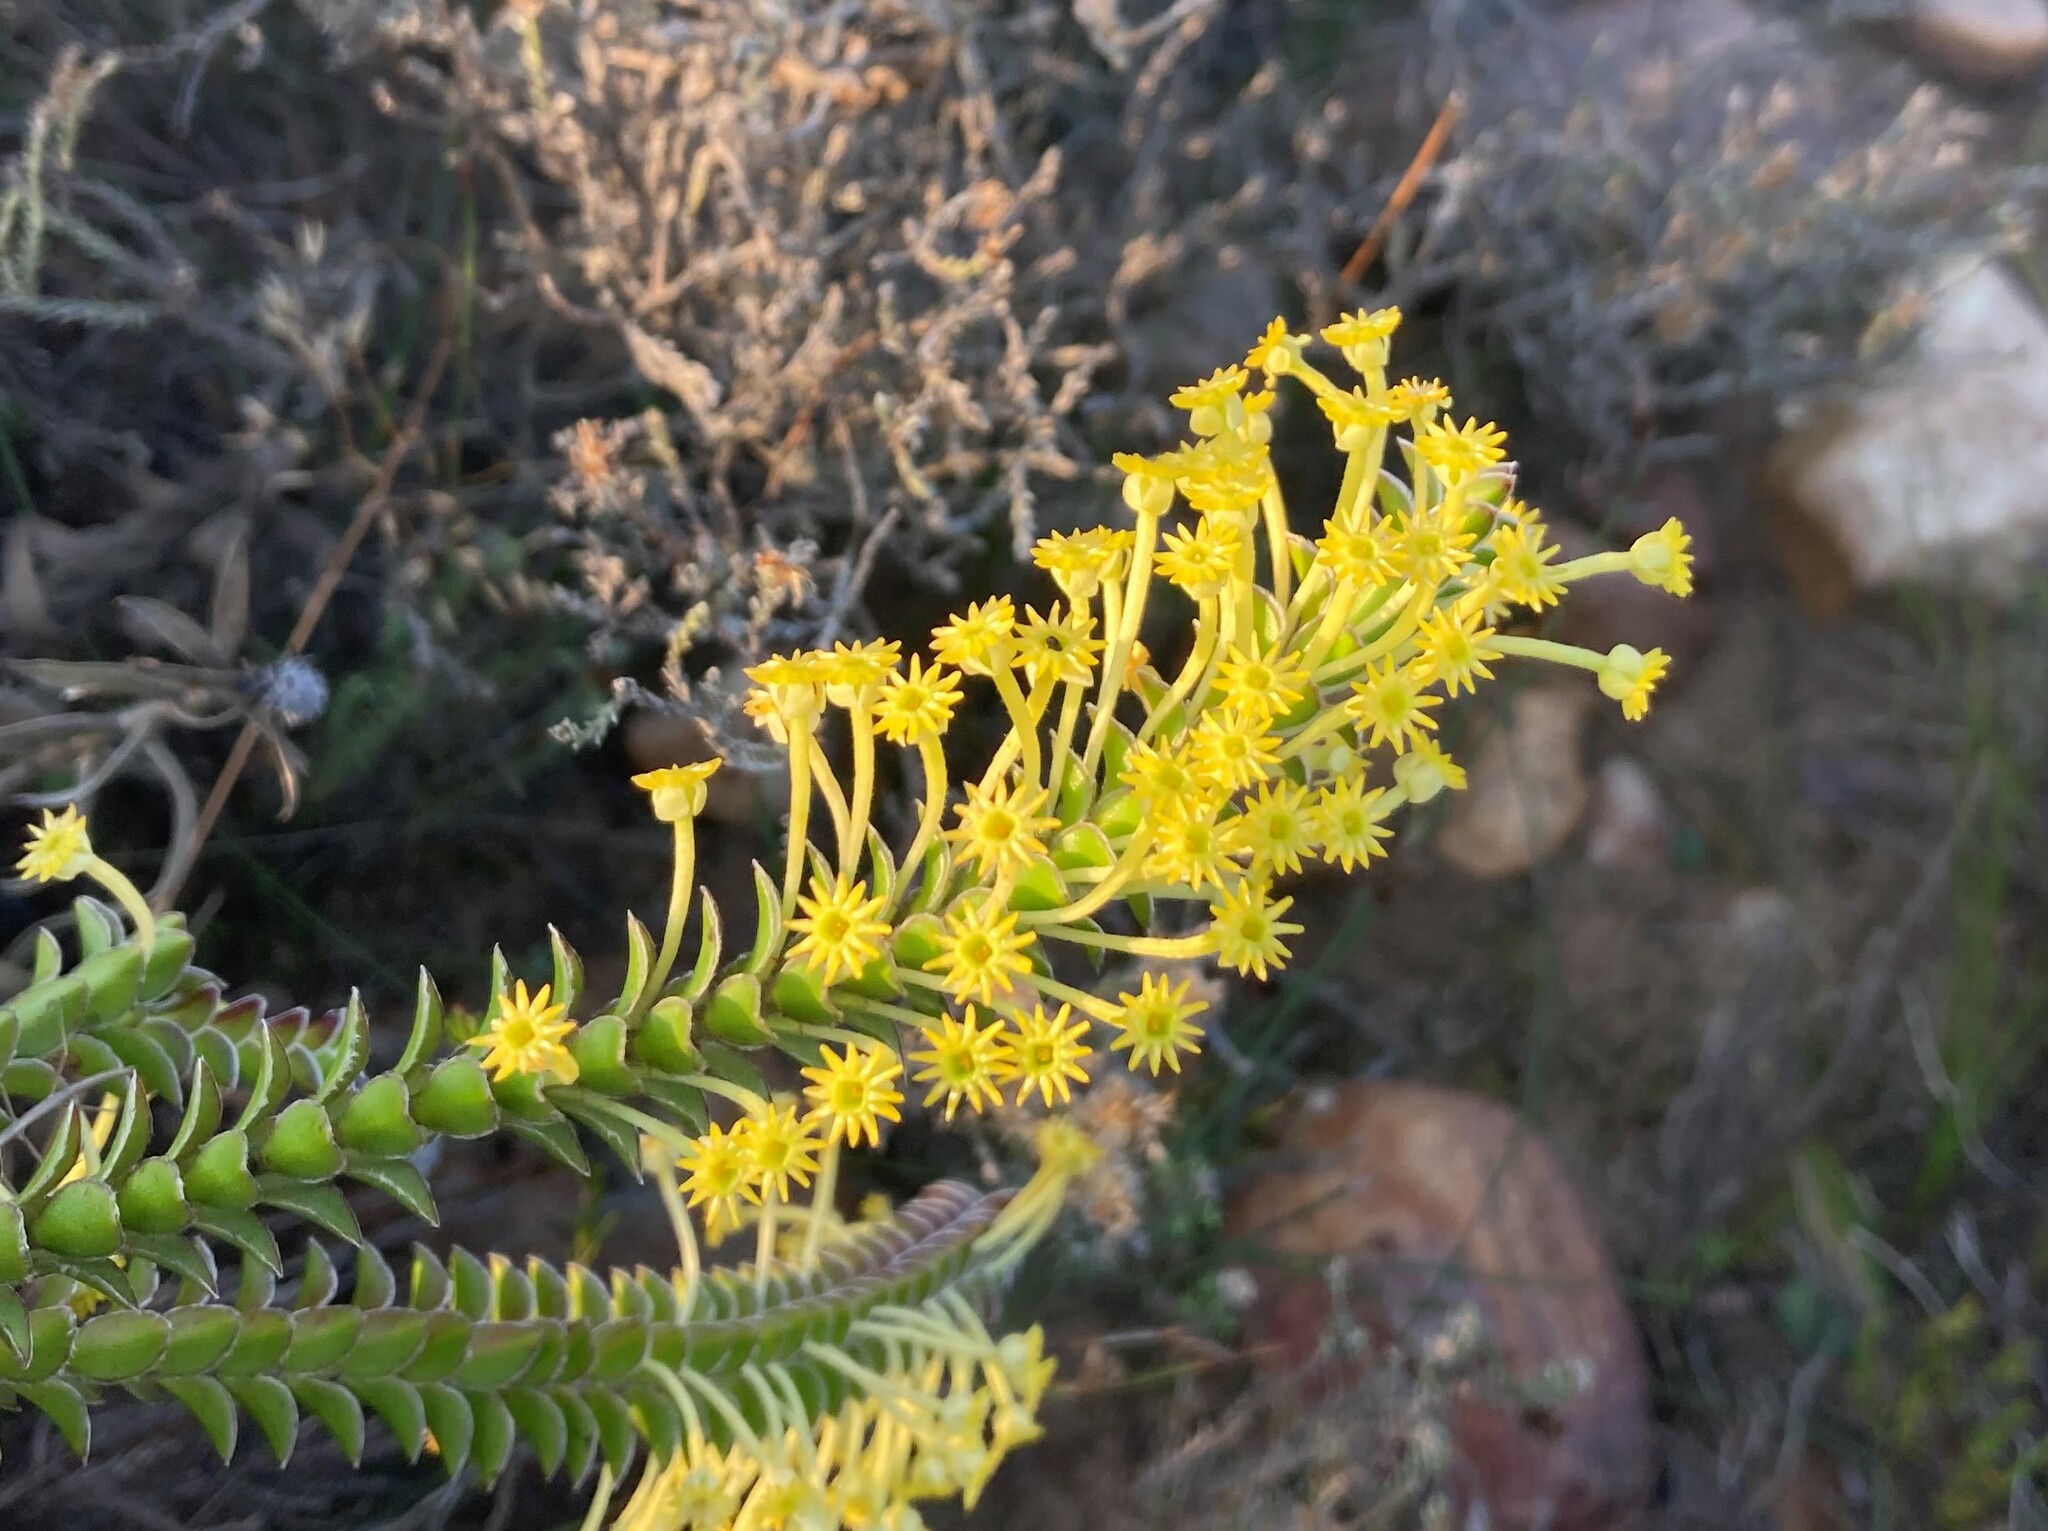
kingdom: Plantae
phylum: Tracheophyta
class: Magnoliopsida
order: Malvales
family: Thymelaeaceae
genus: Struthiola
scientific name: Struthiola argentea
